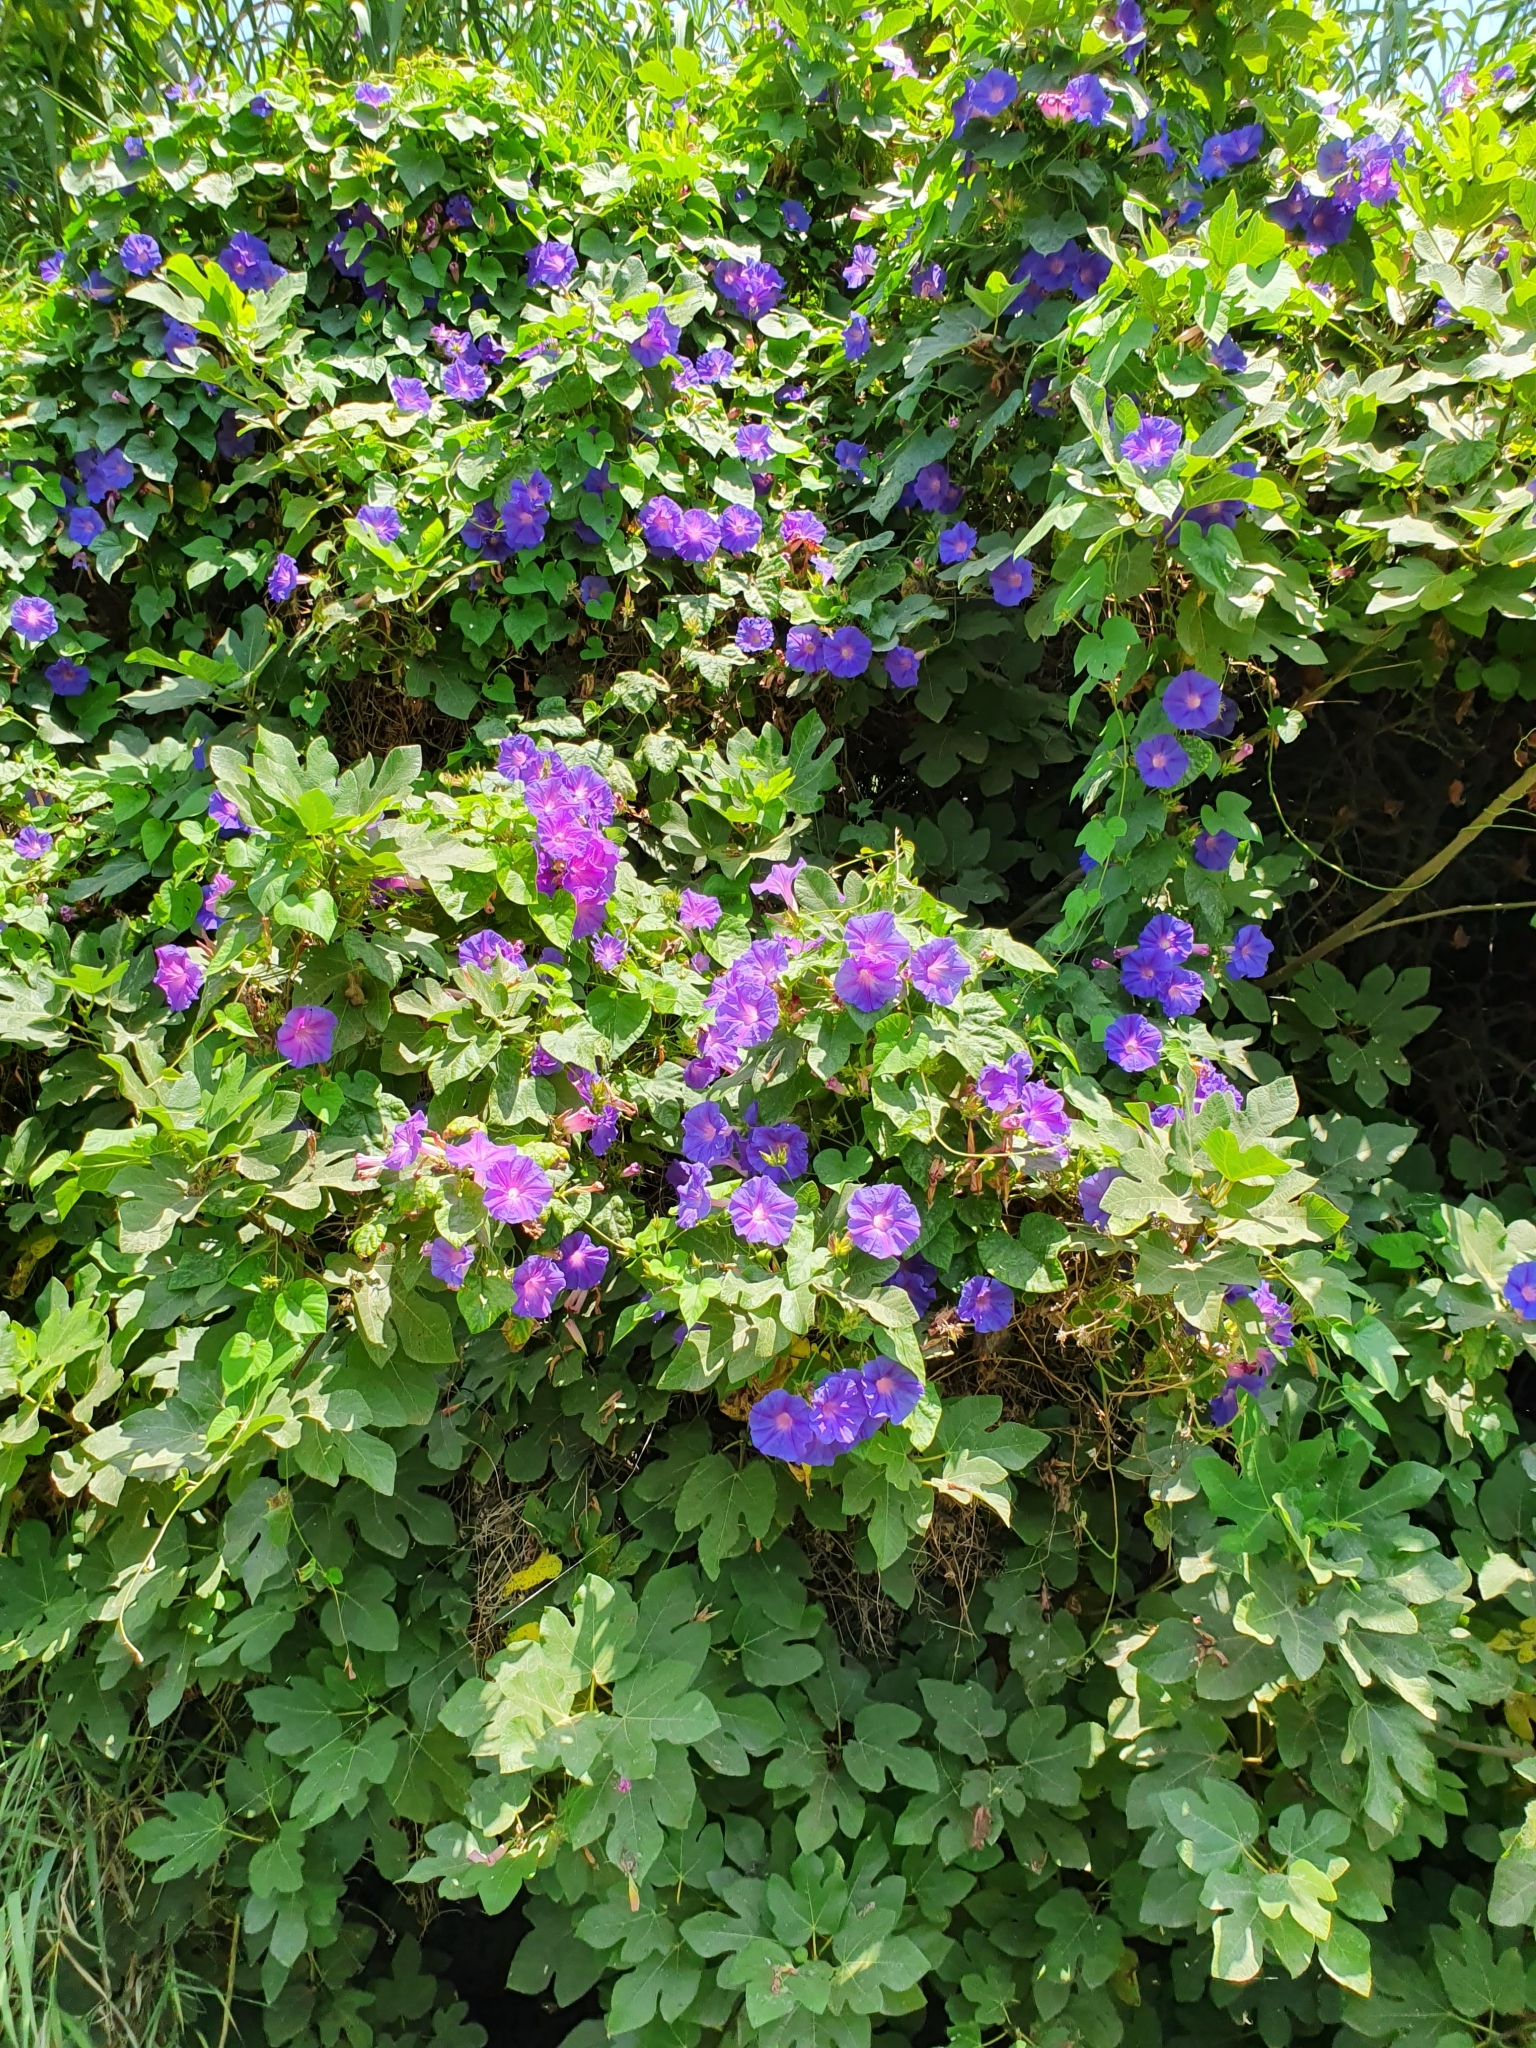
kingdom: Plantae
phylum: Tracheophyta
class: Magnoliopsida
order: Solanales
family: Convolvulaceae
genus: Ipomoea
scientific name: Ipomoea indica
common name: Blue dawnflower
